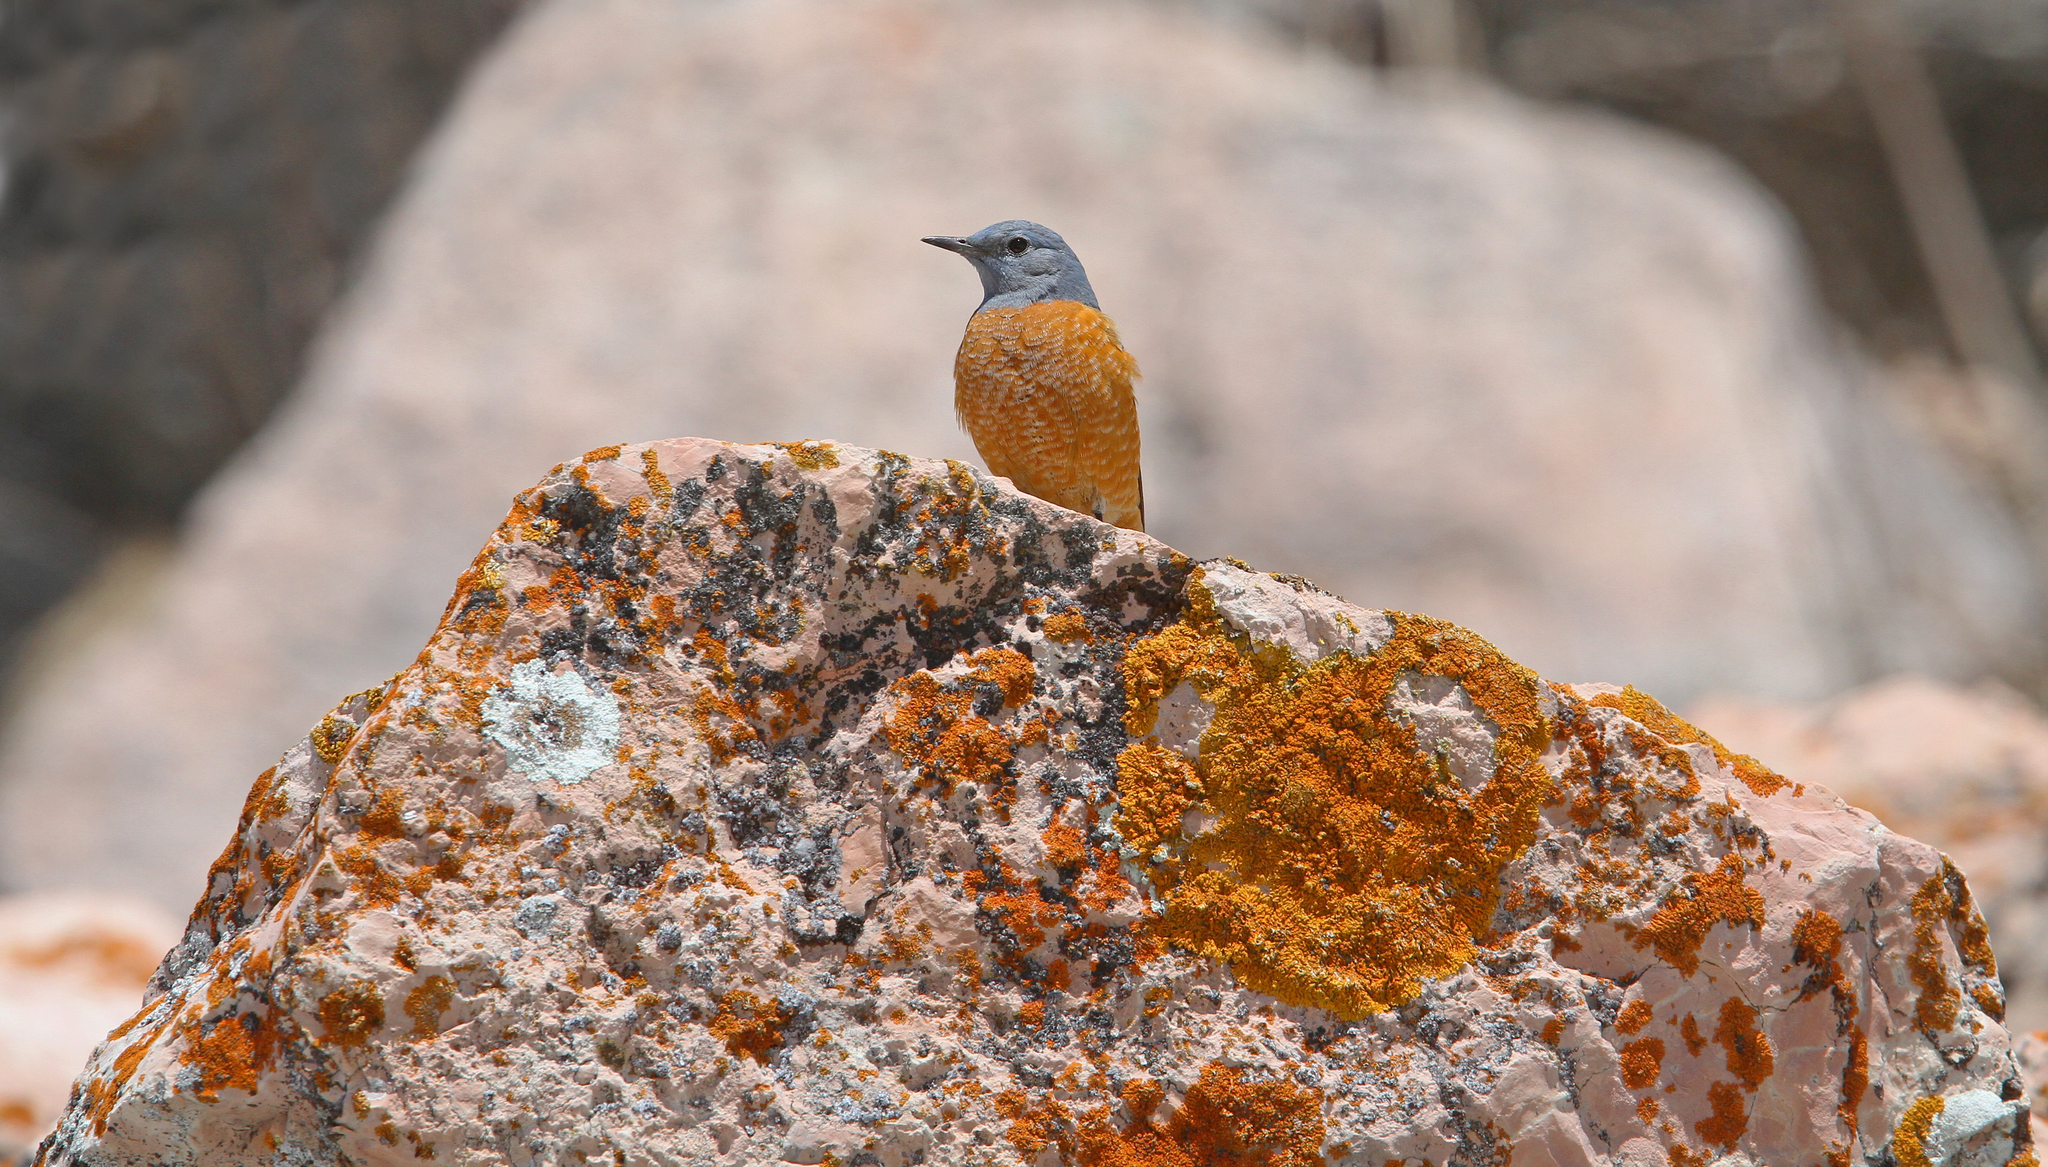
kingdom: Animalia
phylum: Chordata
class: Aves
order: Passeriformes
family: Muscicapidae
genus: Monticola
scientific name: Monticola saxatilis
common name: Rufous-tailed rock thrush
